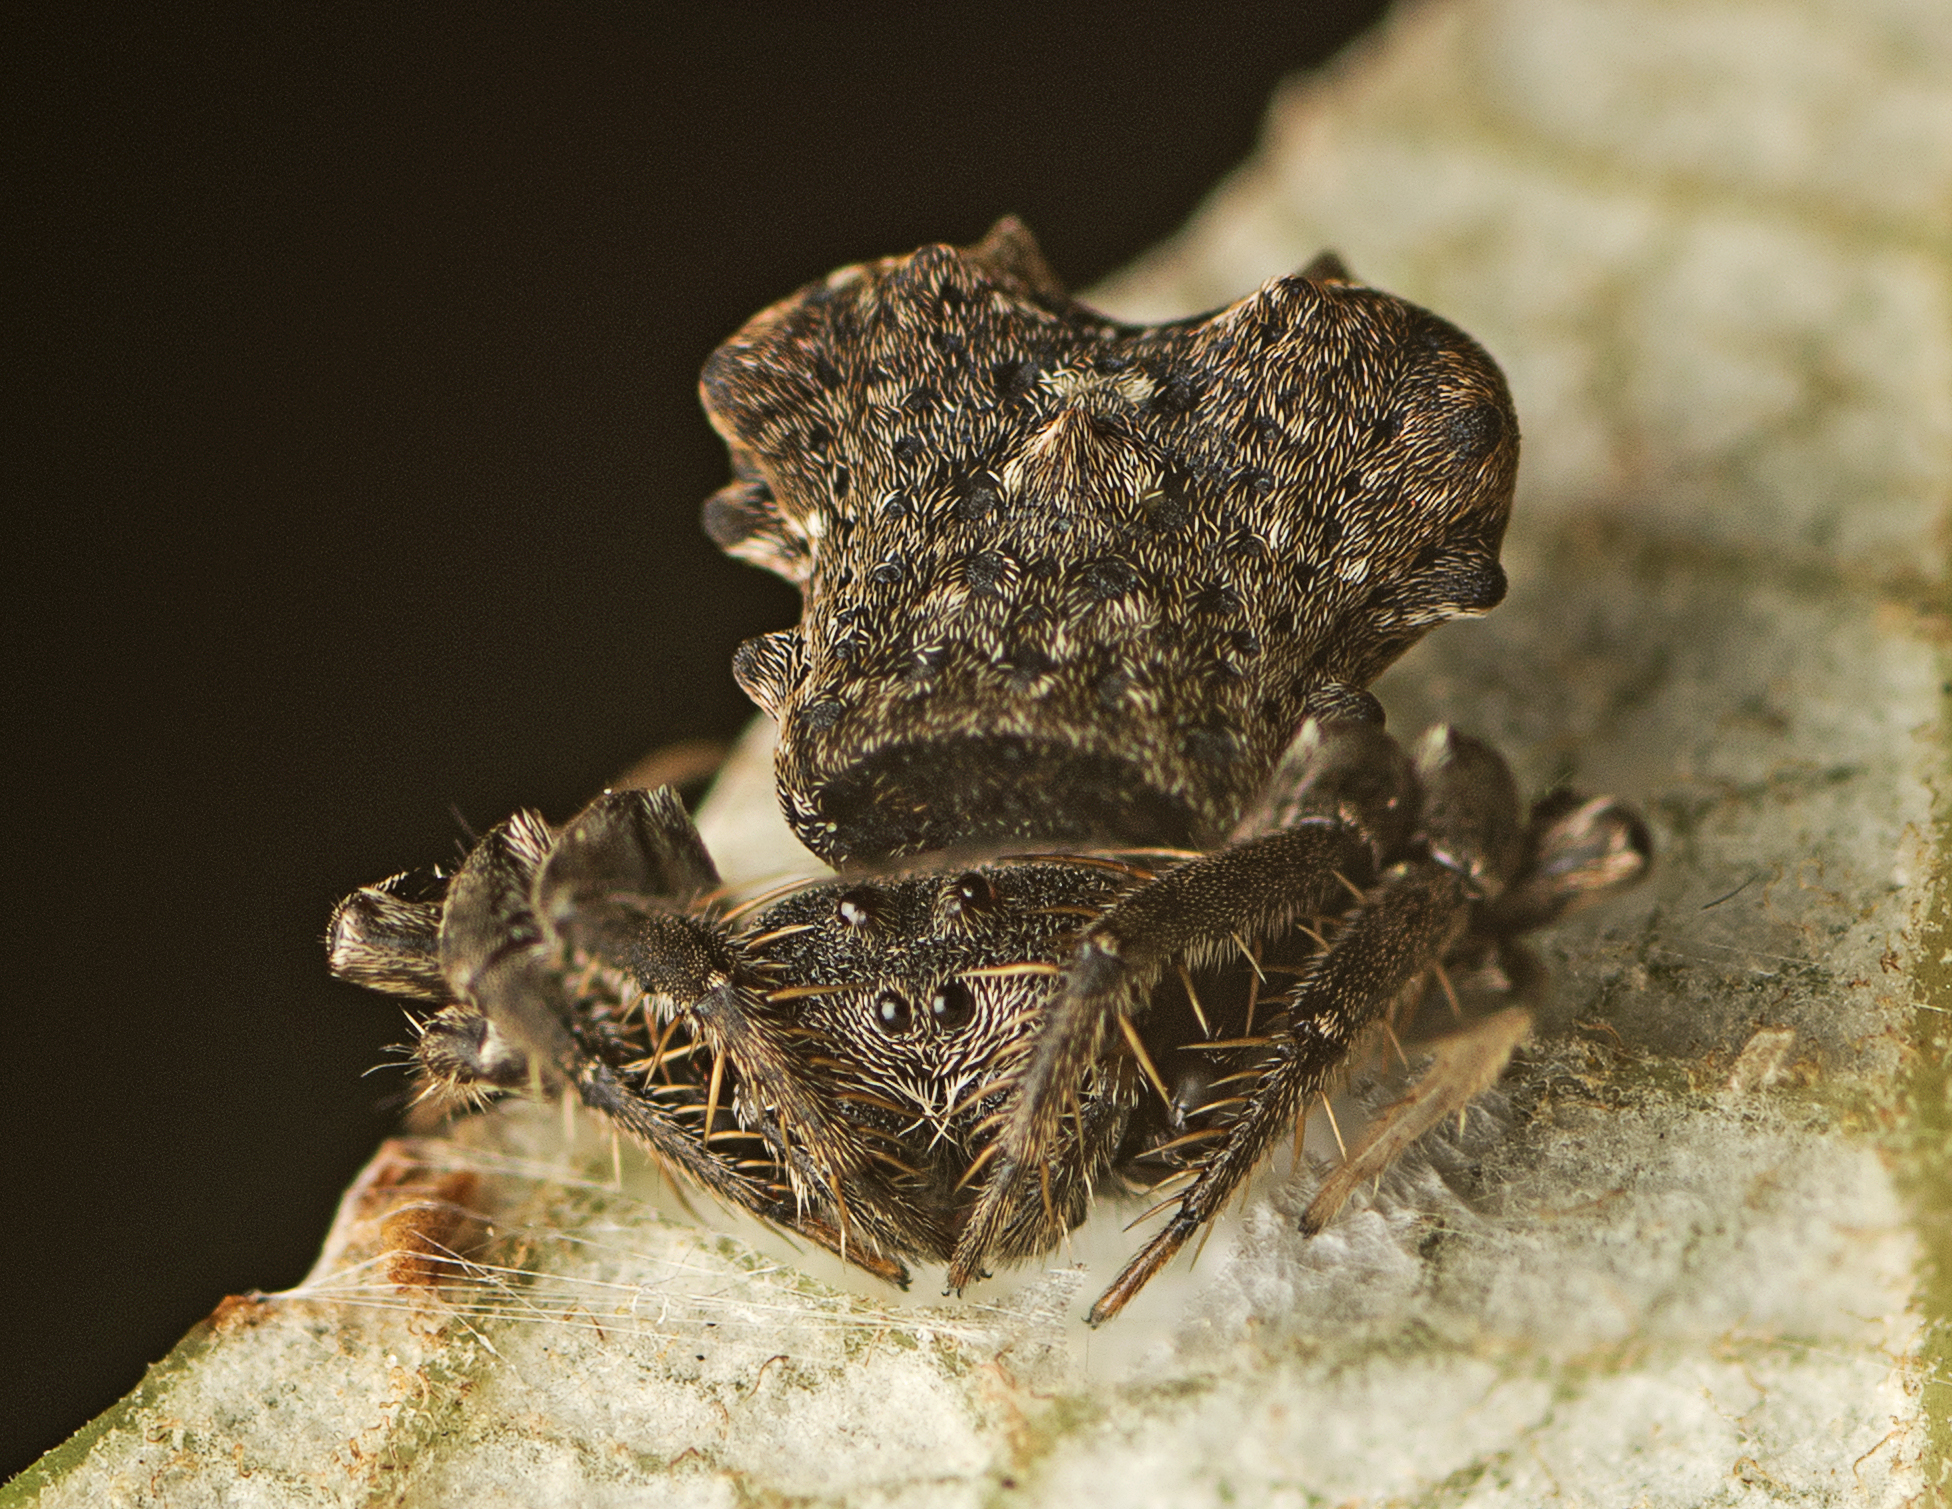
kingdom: Animalia
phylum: Arthropoda
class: Arachnida
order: Araneae
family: Arkyidae
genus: Arkys
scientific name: Arkys dilatatus
